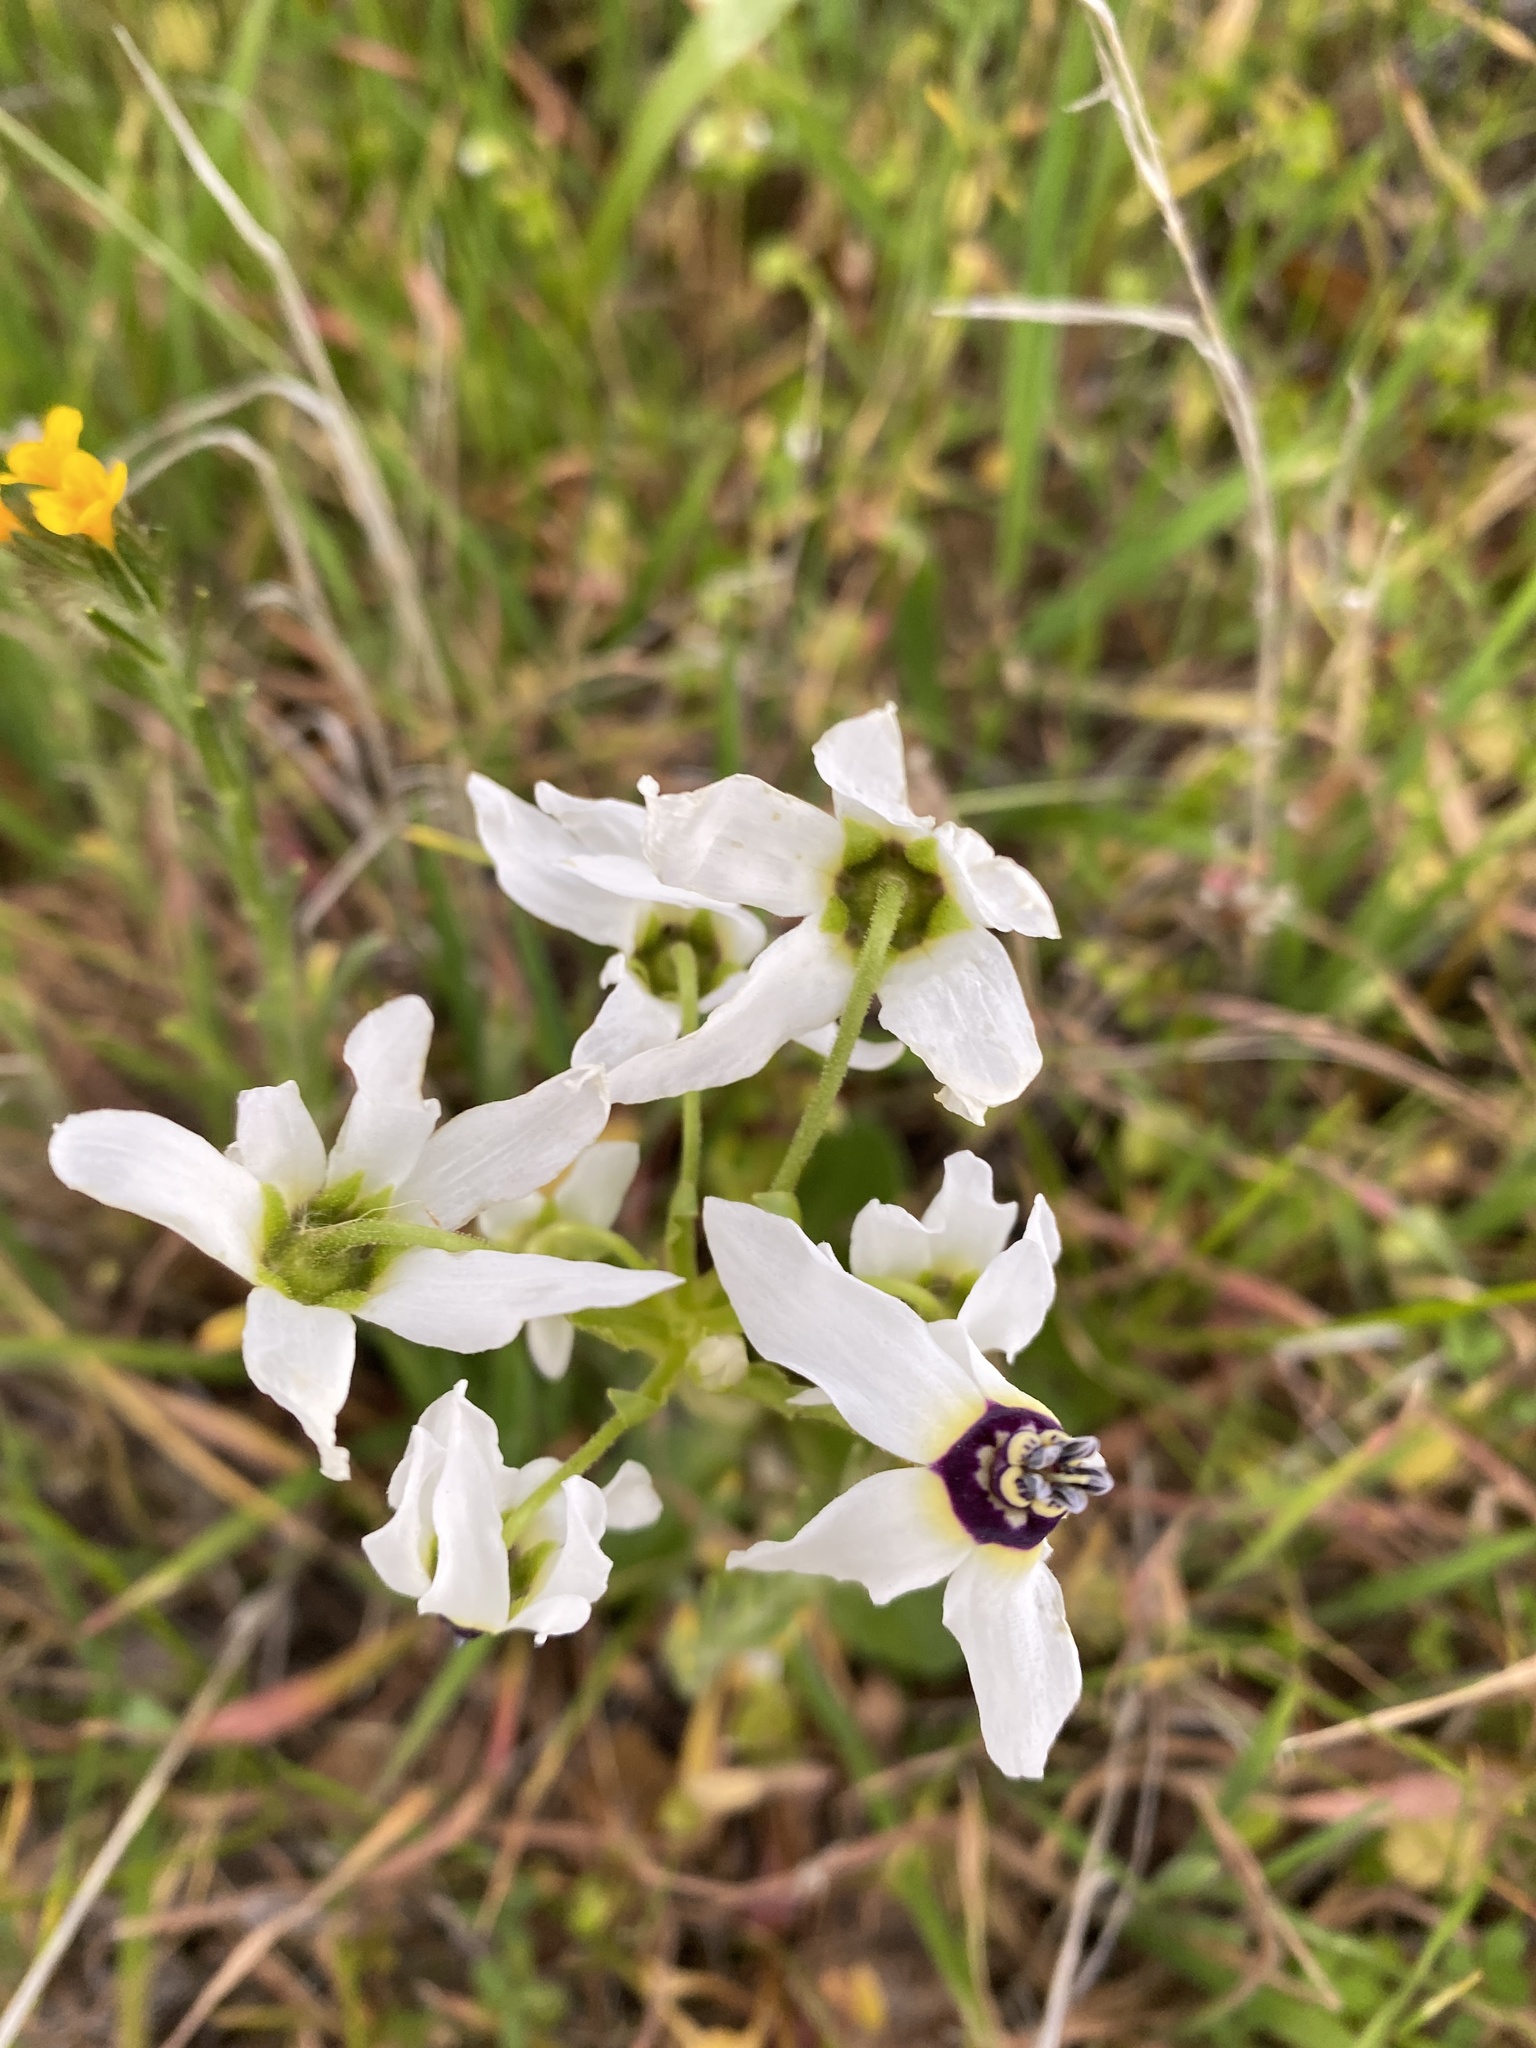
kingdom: Plantae
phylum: Tracheophyta
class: Magnoliopsida
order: Ericales
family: Primulaceae
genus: Dodecatheon
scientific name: Dodecatheon clevelandii
